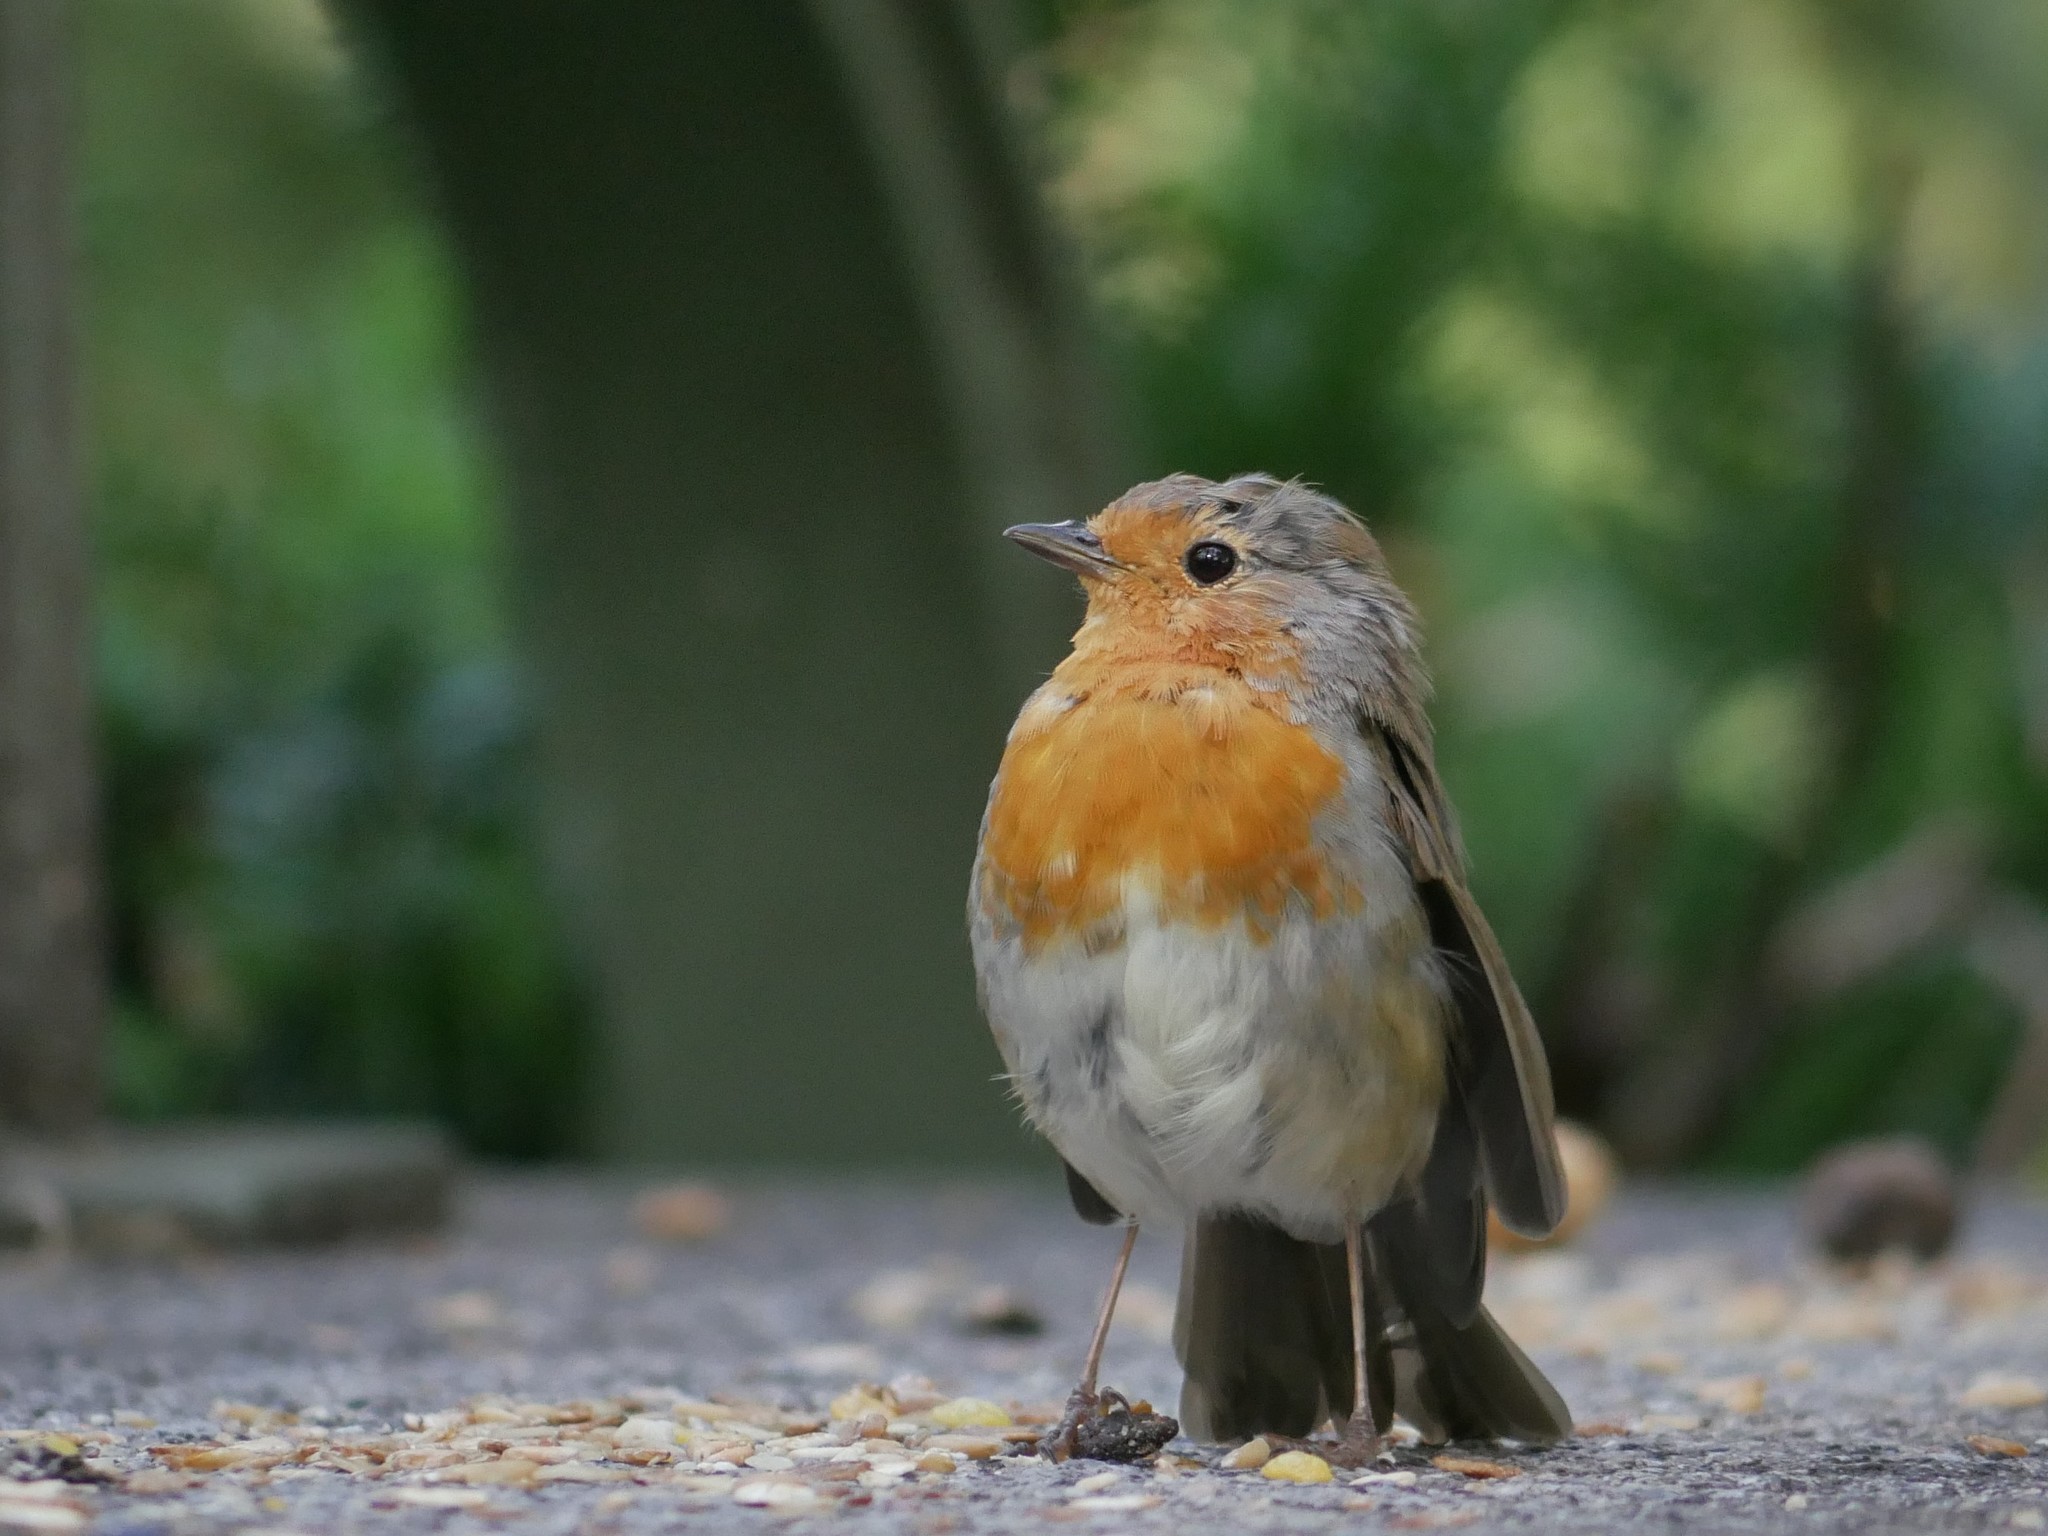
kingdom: Animalia
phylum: Chordata
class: Aves
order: Passeriformes
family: Muscicapidae
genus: Erithacus
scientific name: Erithacus rubecula
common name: European robin
